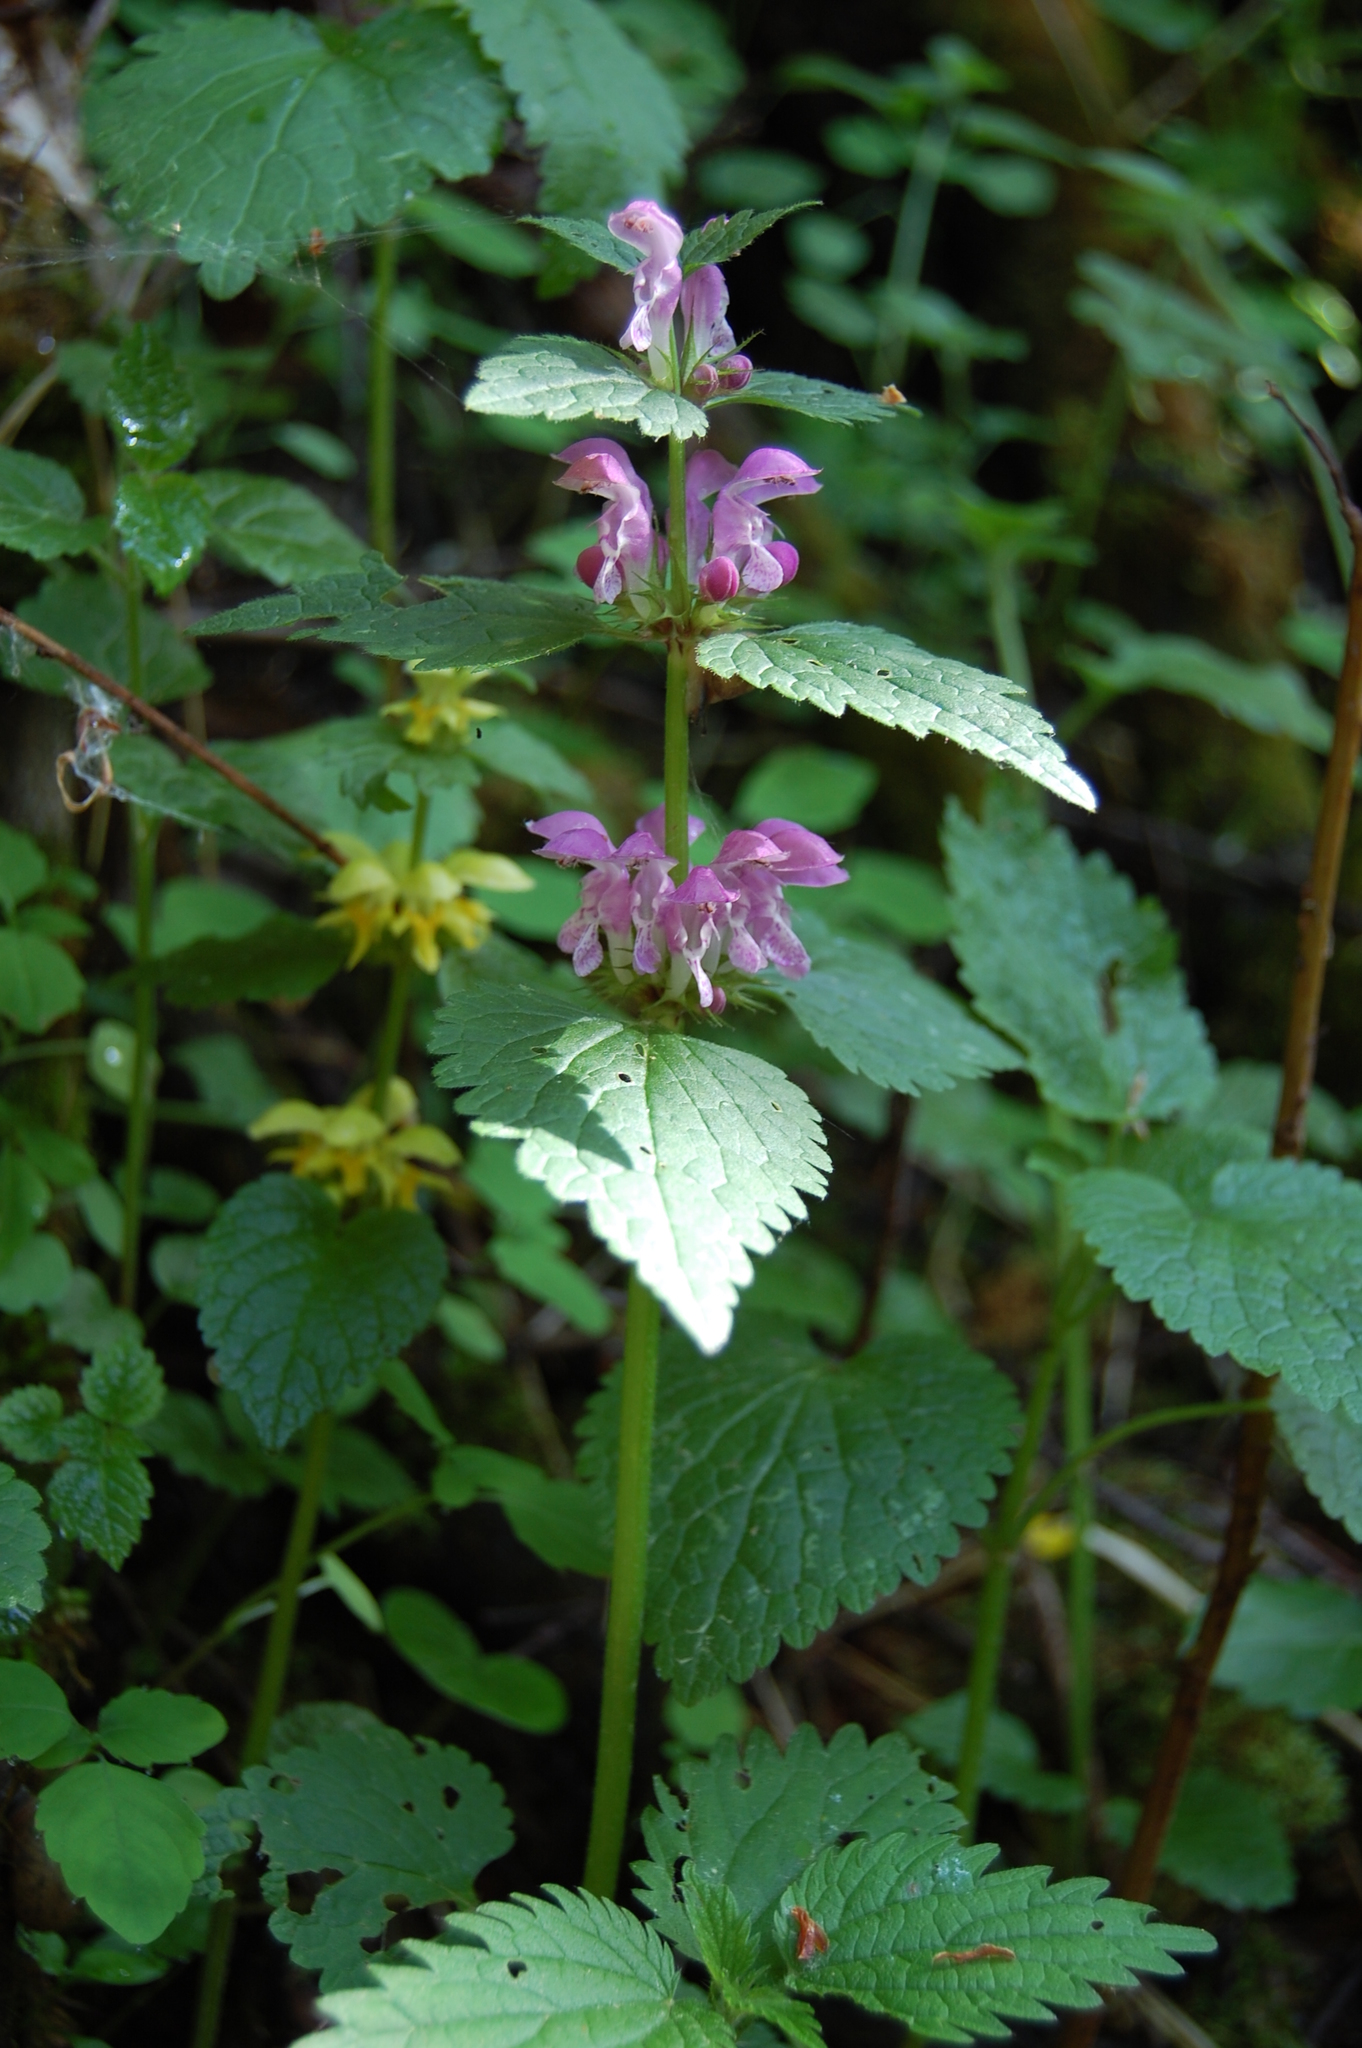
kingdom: Plantae
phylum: Tracheophyta
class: Magnoliopsida
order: Lamiales
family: Lamiaceae
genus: Lamium
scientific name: Lamium maculatum
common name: Spotted dead-nettle
